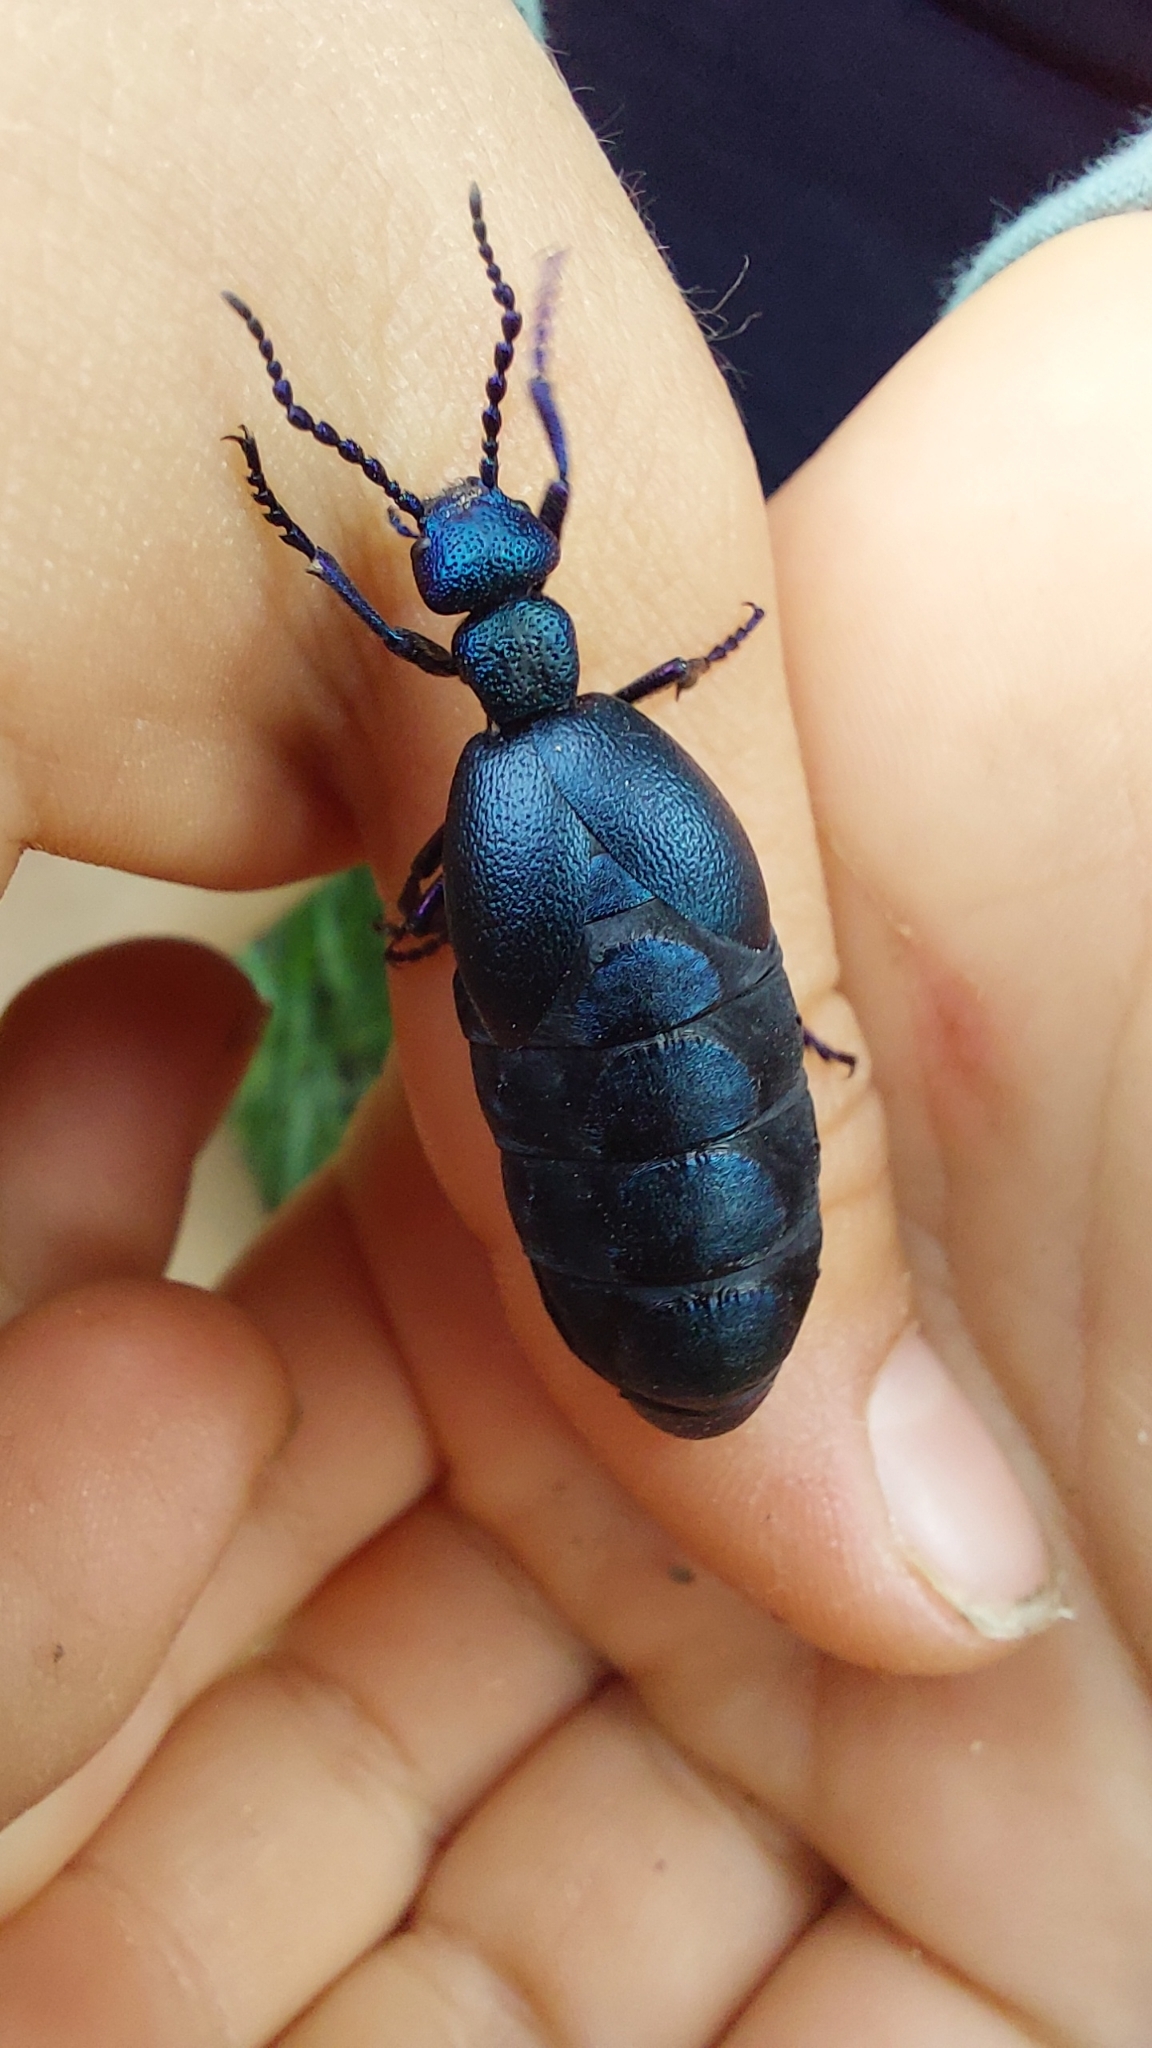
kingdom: Animalia
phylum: Arthropoda
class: Insecta
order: Coleoptera
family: Meloidae
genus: Meloe
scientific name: Meloe proscarabaeus
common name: Black oil-beetle
